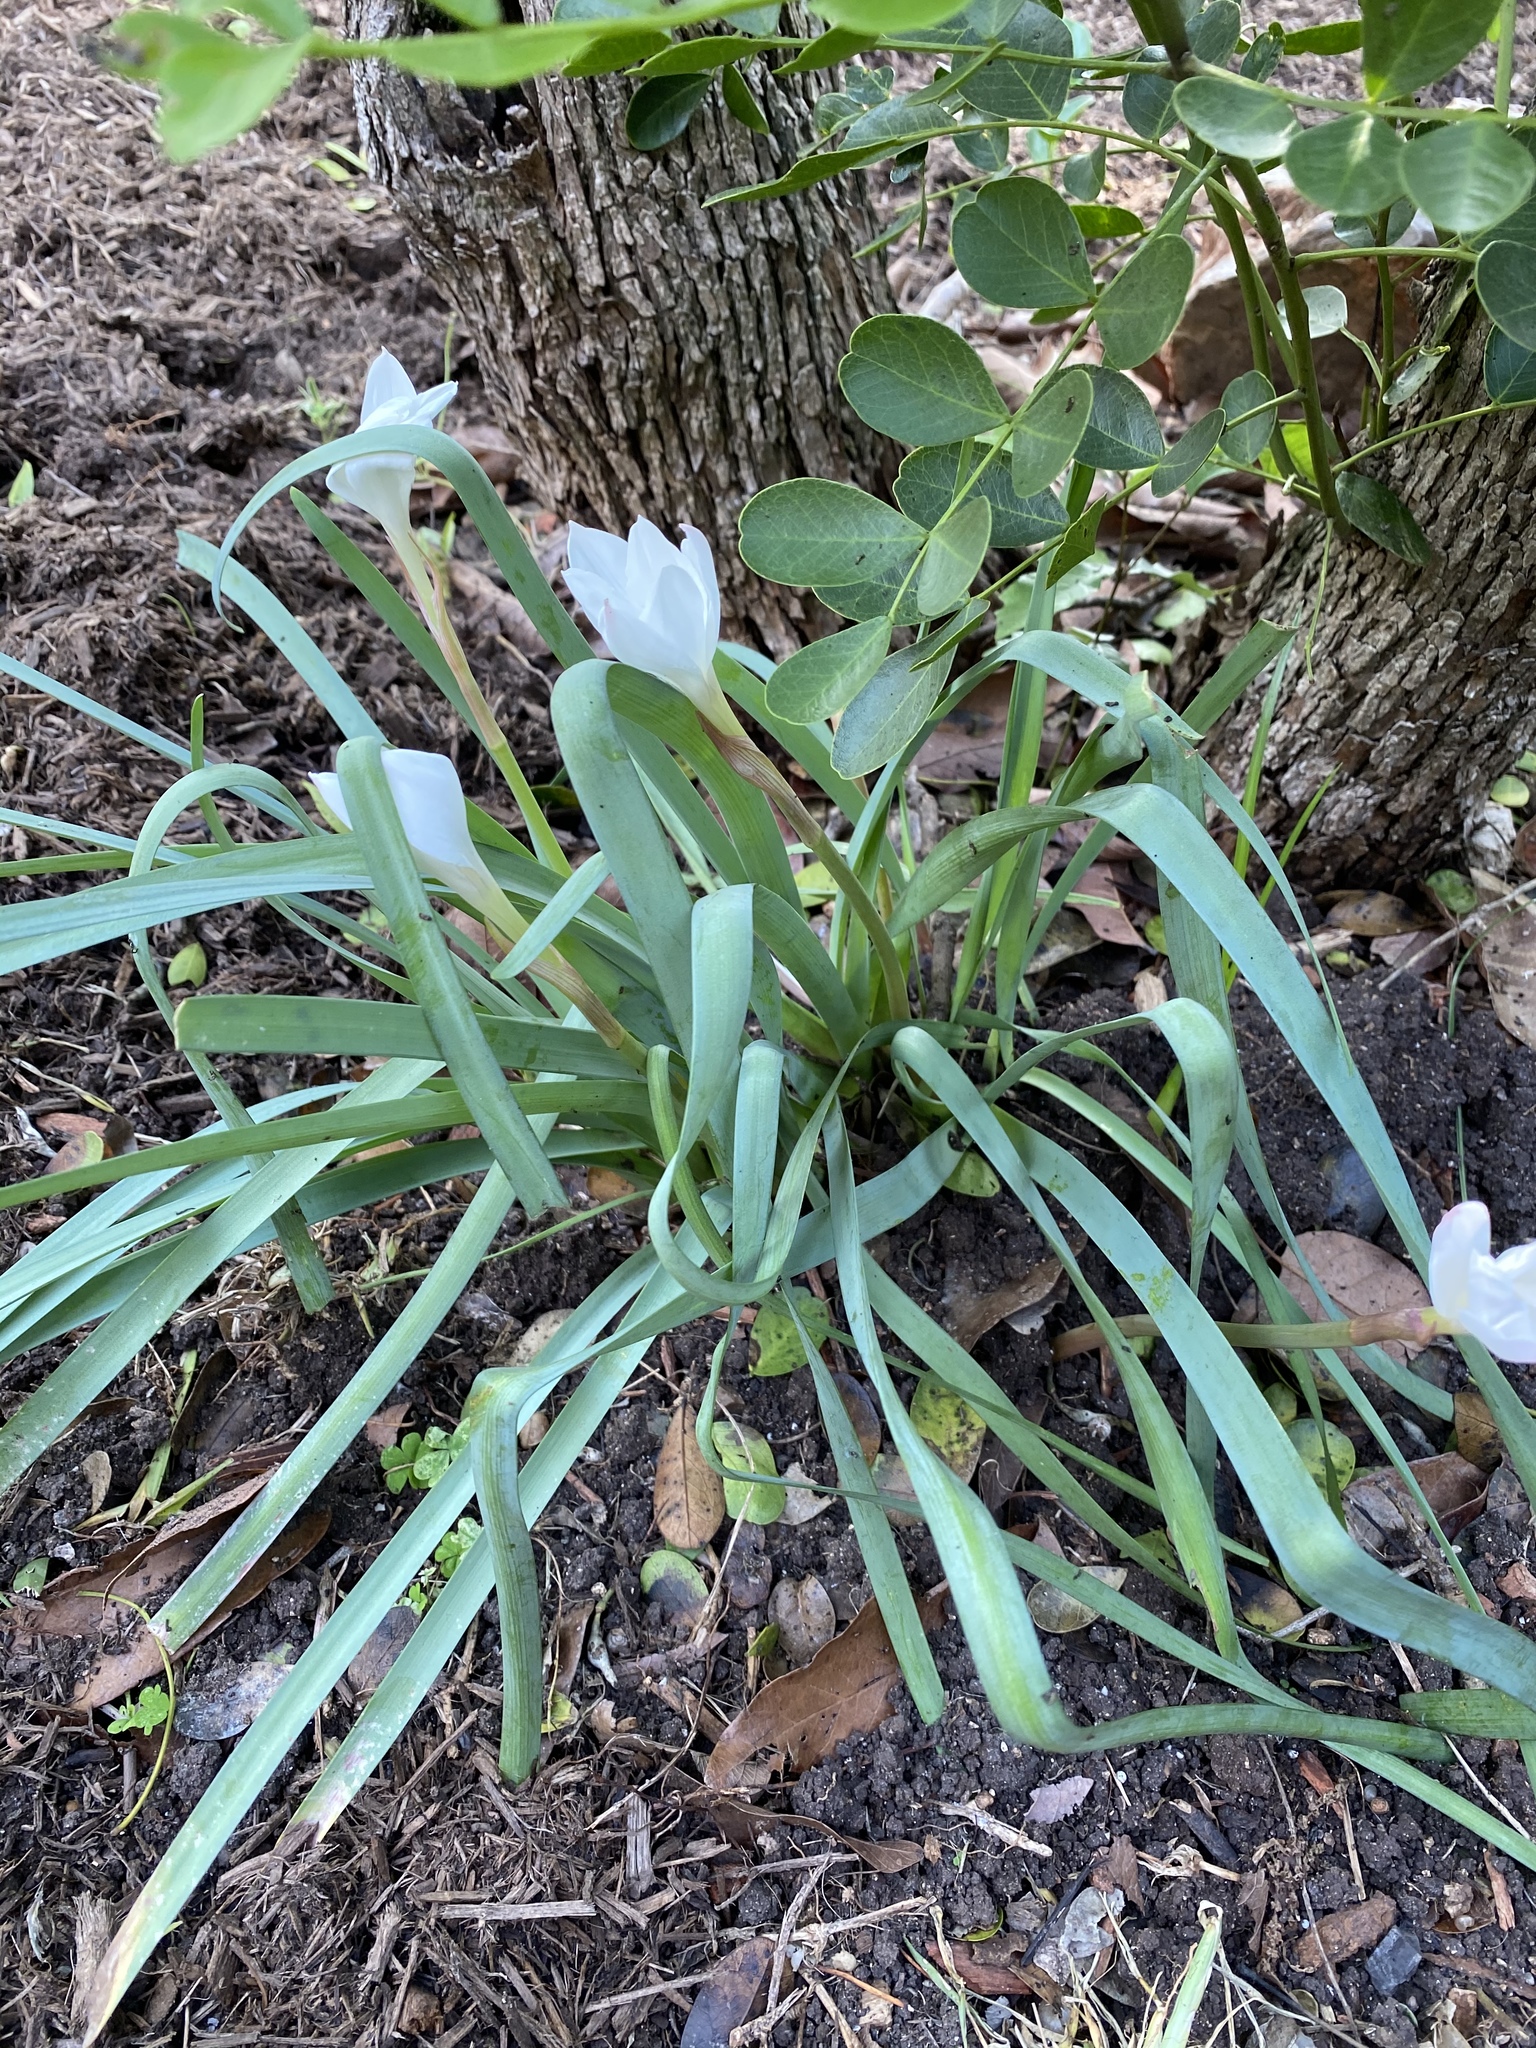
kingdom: Plantae
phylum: Tracheophyta
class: Liliopsida
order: Asparagales
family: Amaryllidaceae
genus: Zephyranthes
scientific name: Zephyranthes drummondii
